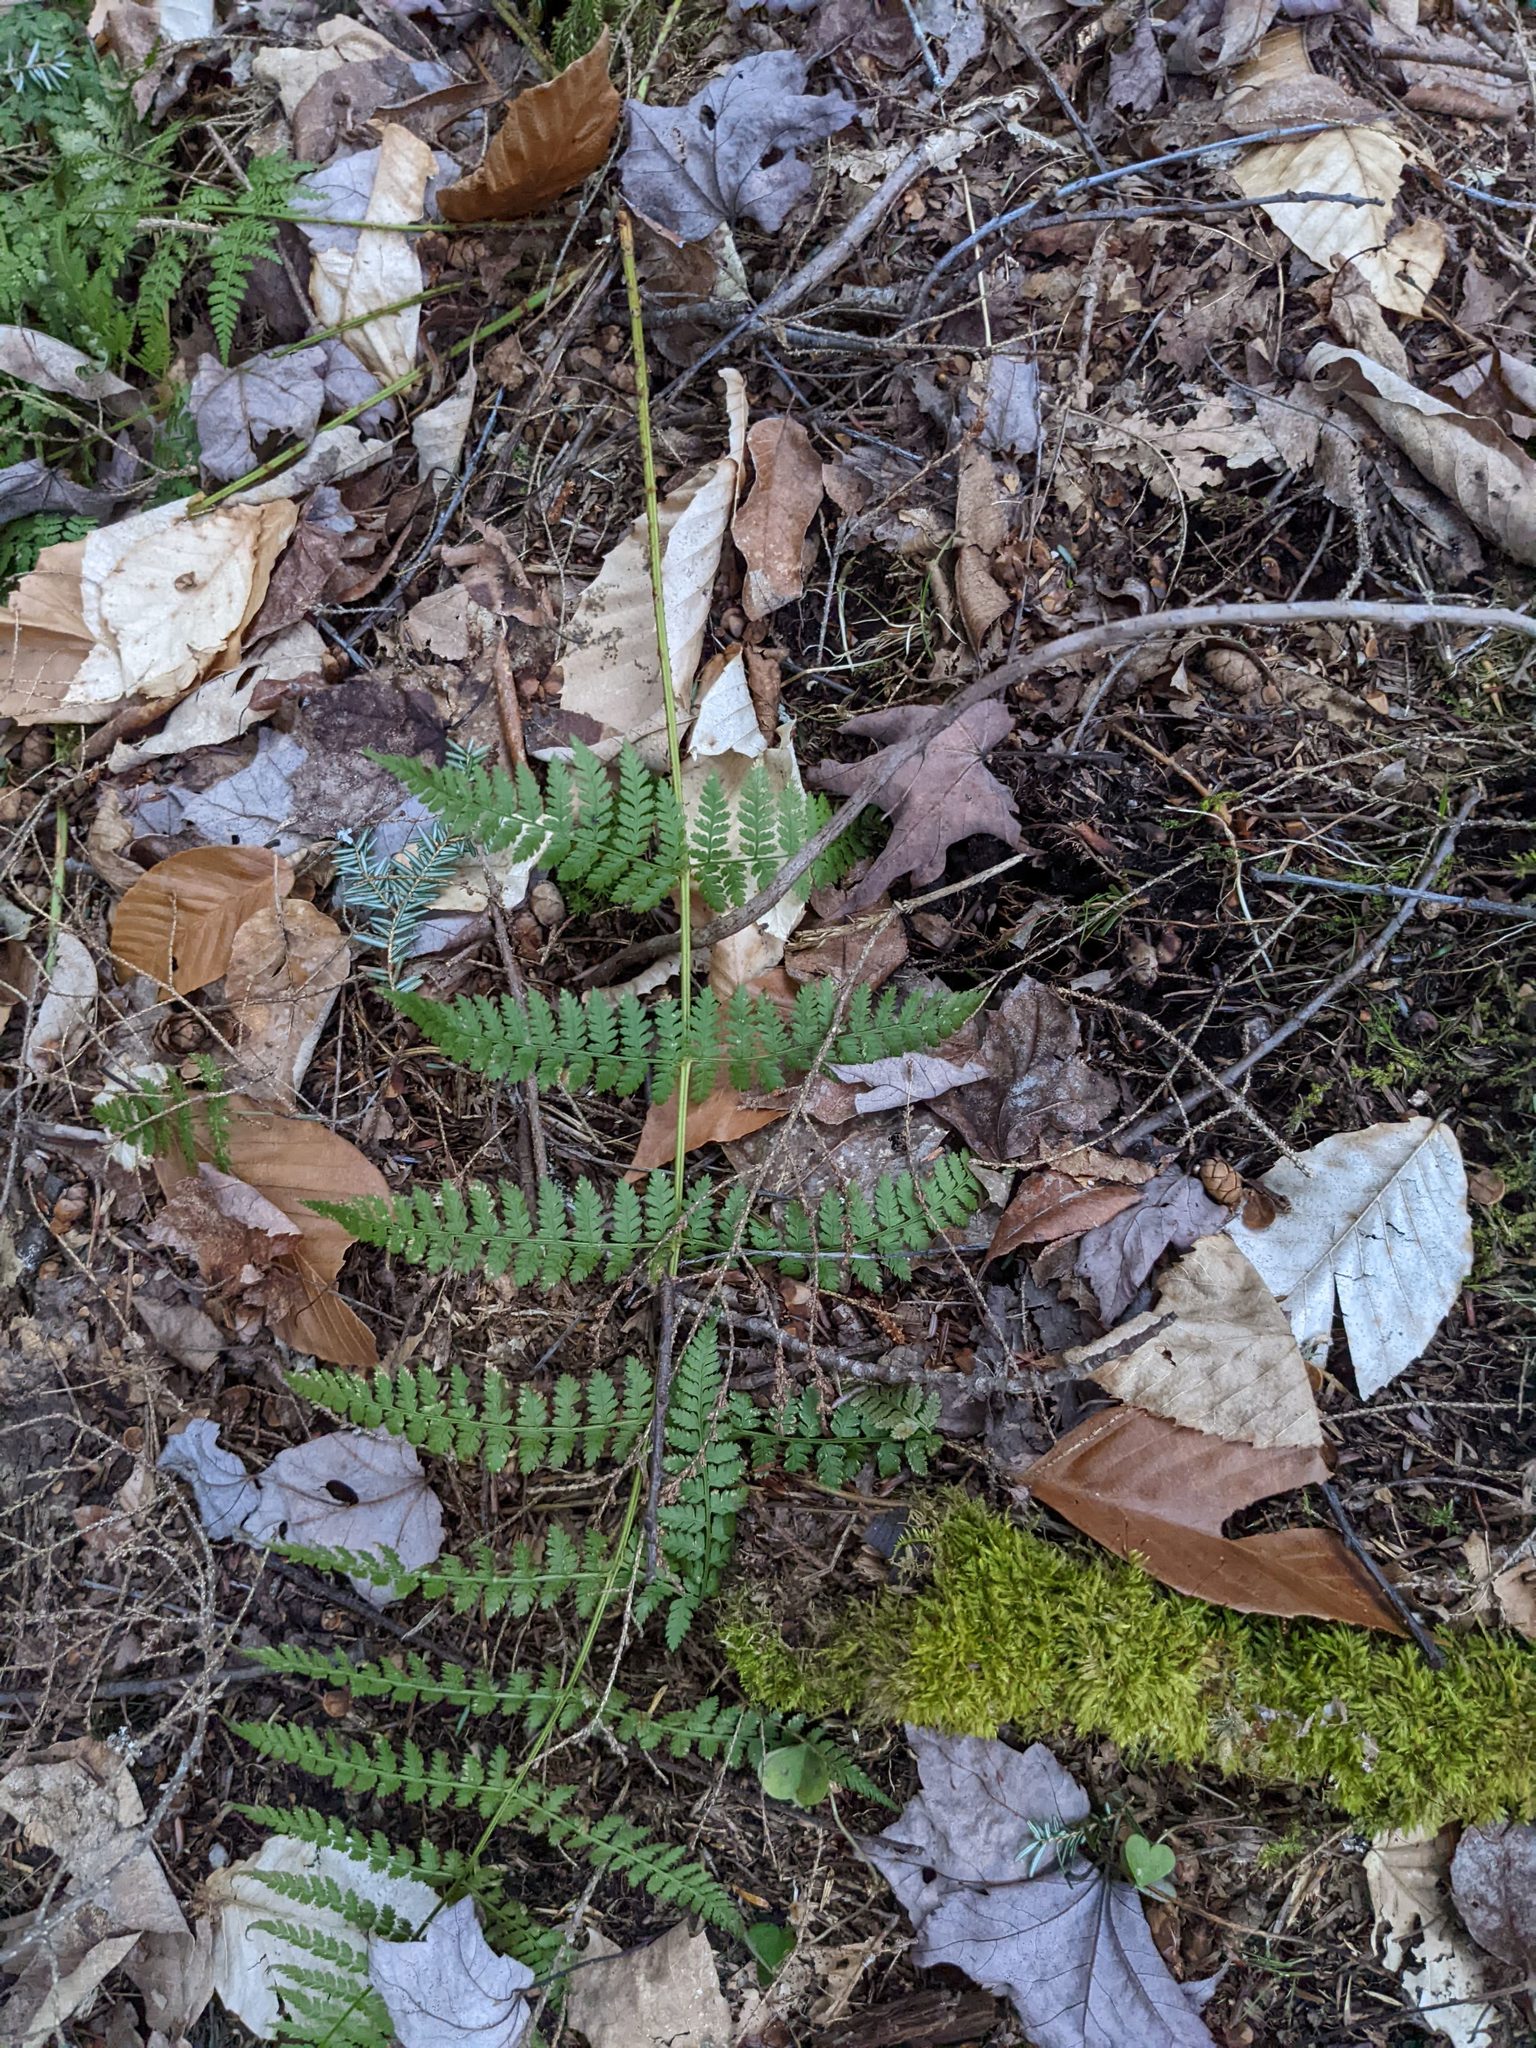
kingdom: Plantae
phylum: Tracheophyta
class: Polypodiopsida
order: Polypodiales
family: Dryopteridaceae
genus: Dryopteris
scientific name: Dryopteris intermedia
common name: Evergreen wood fern
